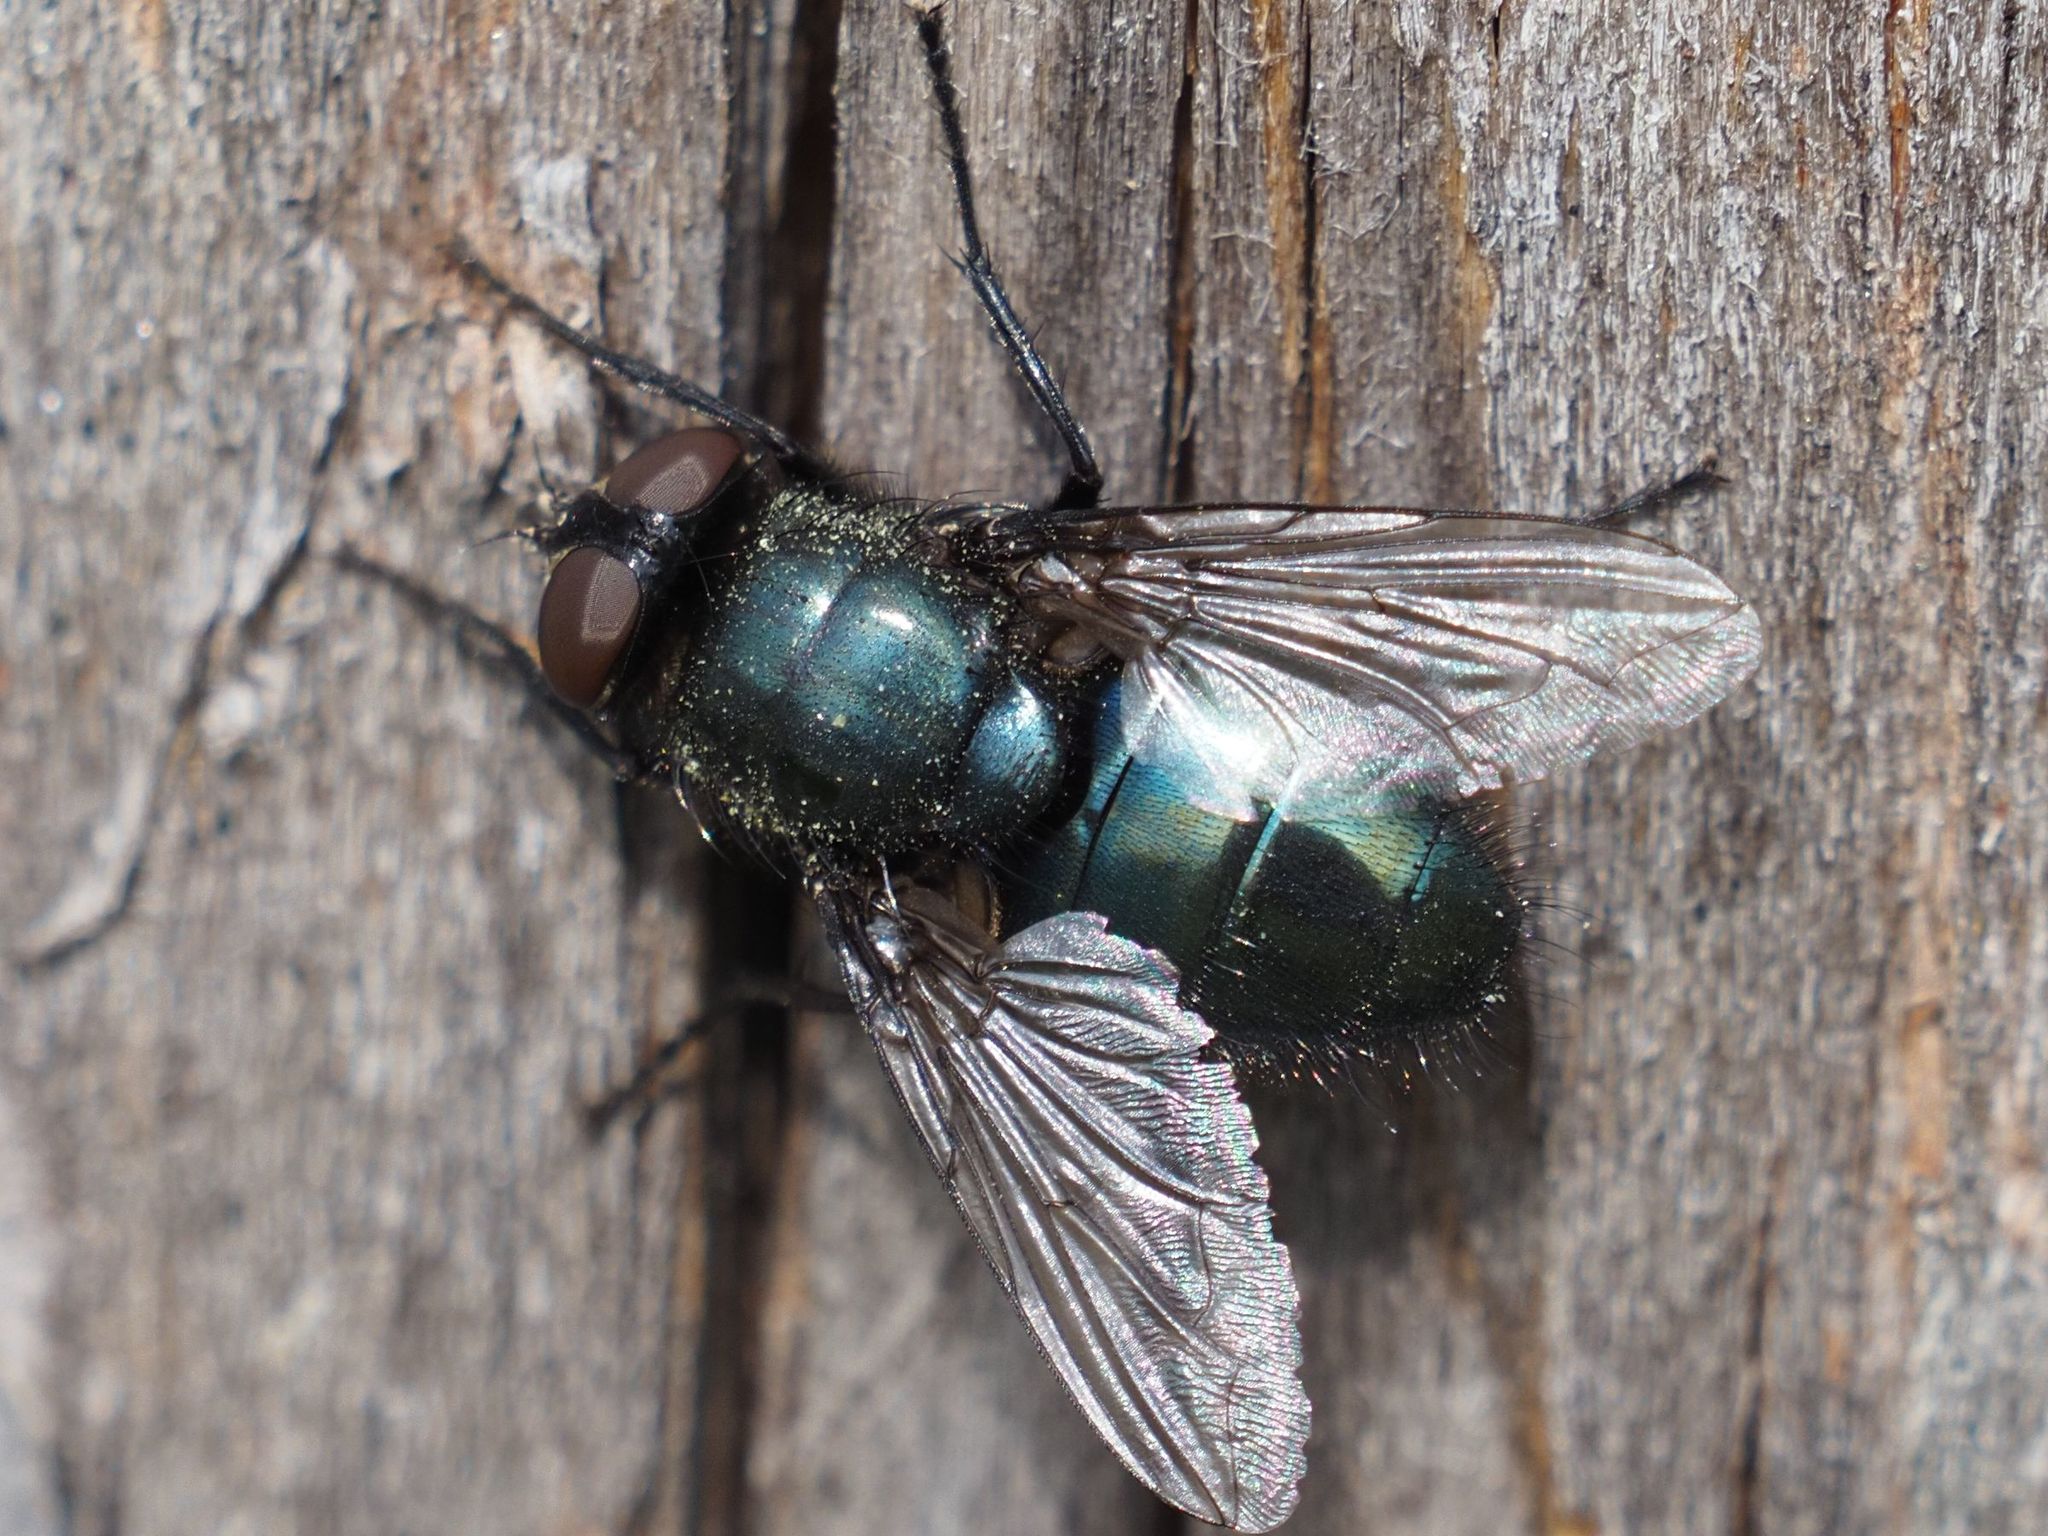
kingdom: Animalia
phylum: Arthropoda
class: Insecta
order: Diptera
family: Calliphoridae
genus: Protophormia
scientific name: Protophormia terraenovae
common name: Blackbottle
